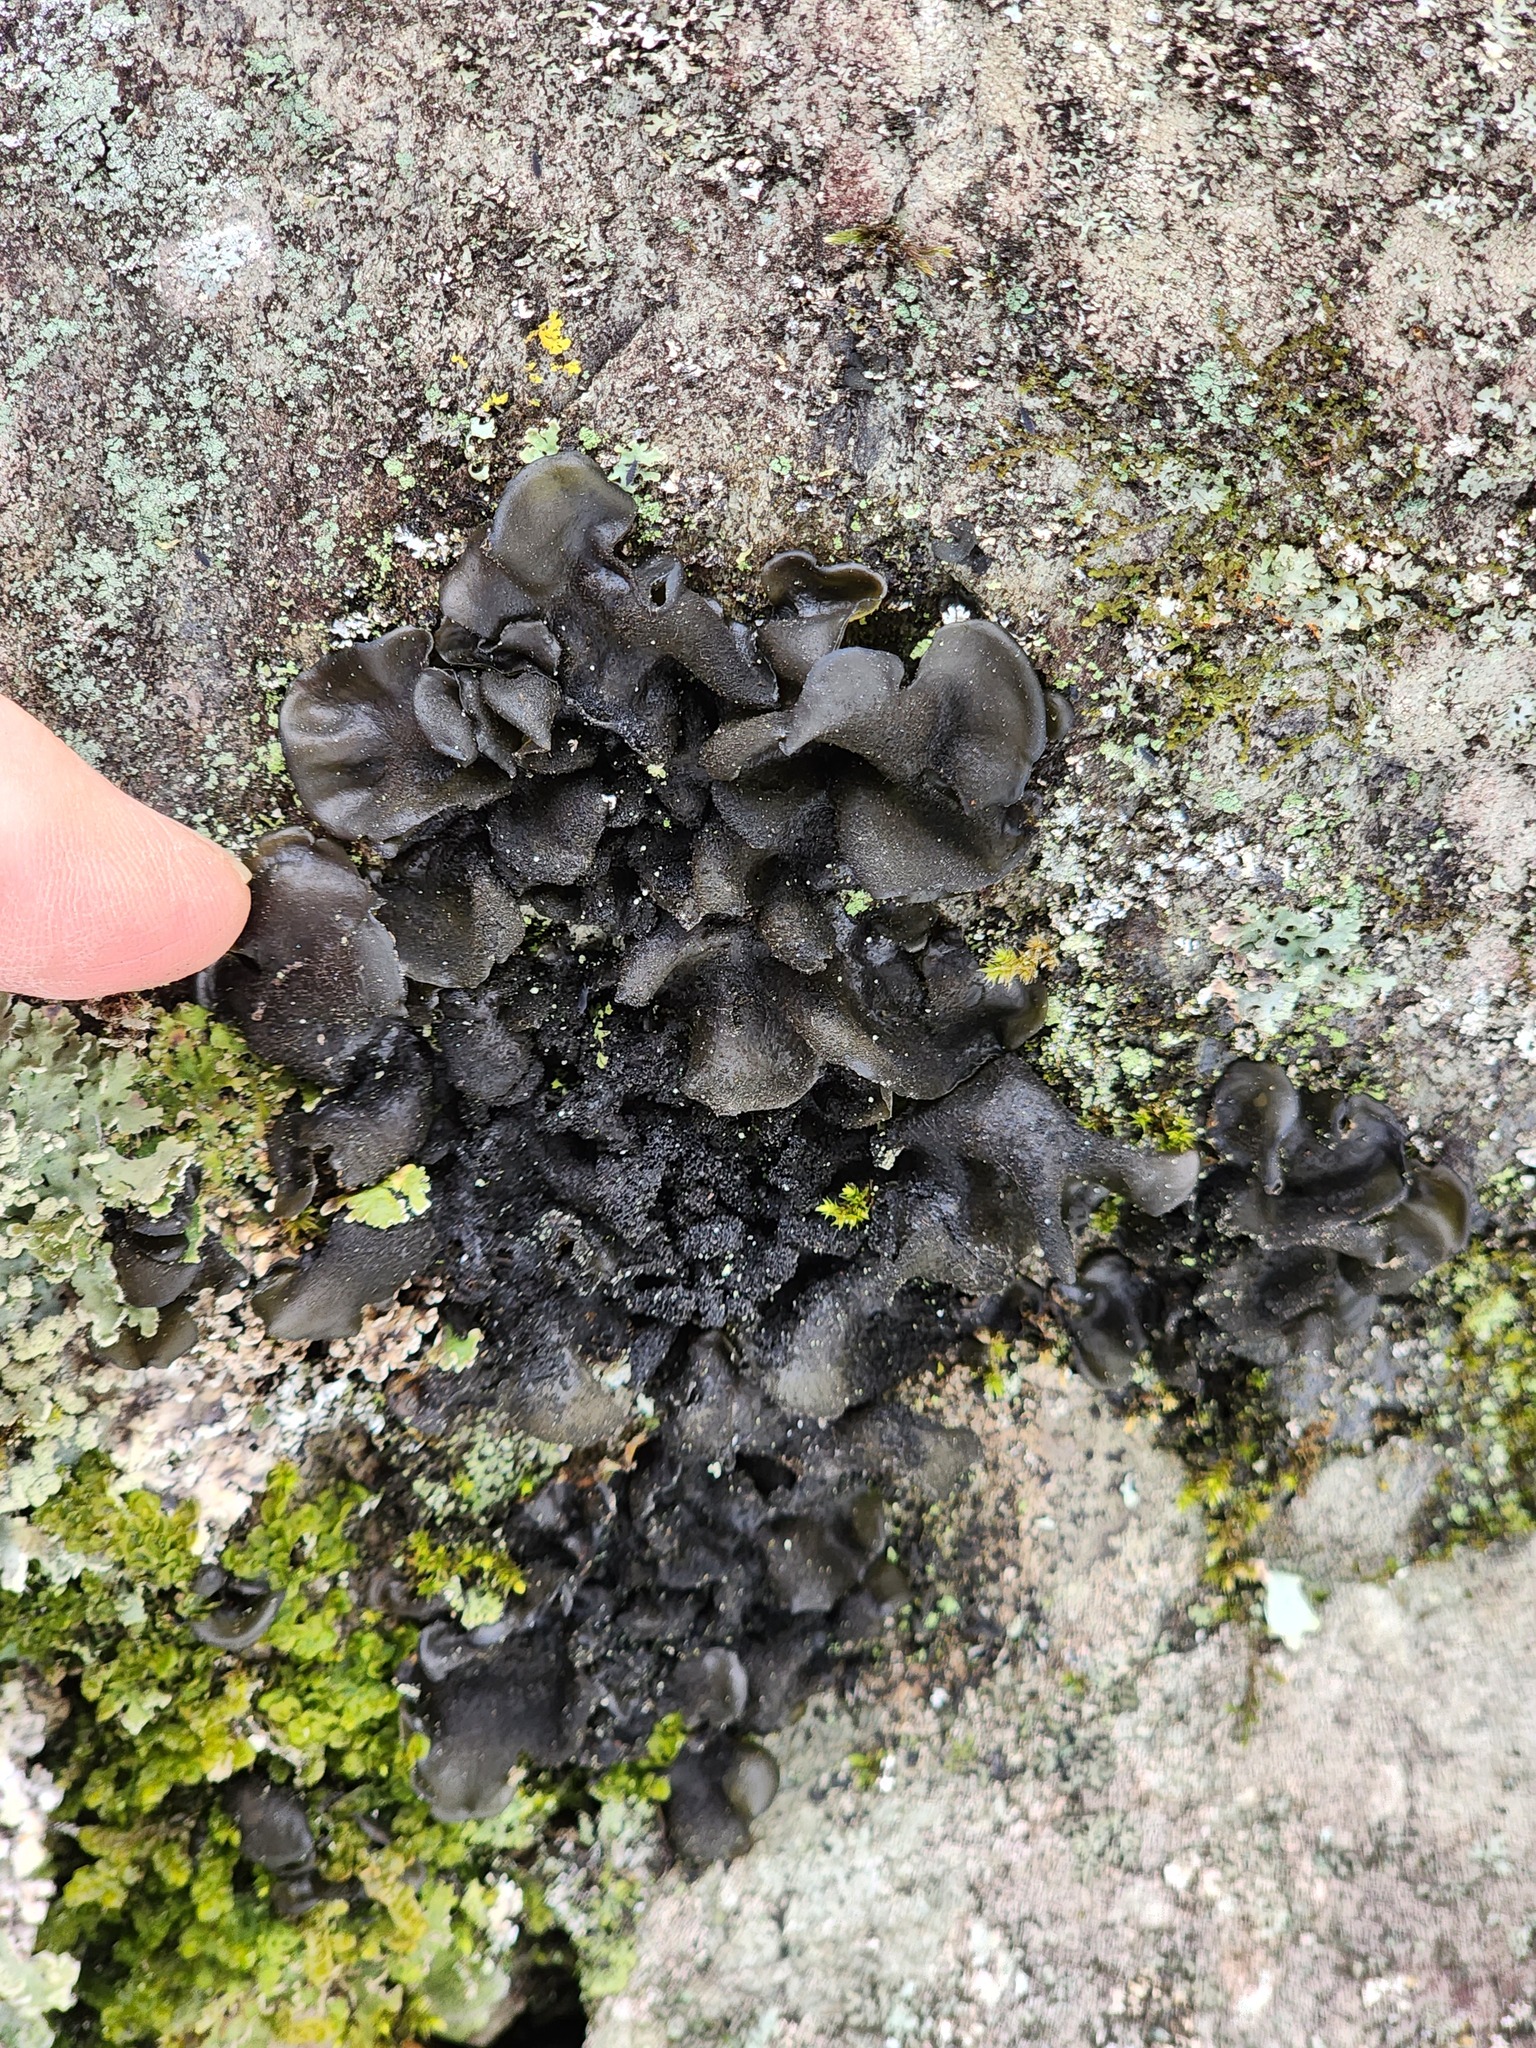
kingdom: Fungi
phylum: Ascomycota
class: Lecanoromycetes
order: Peltigerales
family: Collemataceae
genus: Collema
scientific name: Collema subflaccidum
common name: Tree jelly
